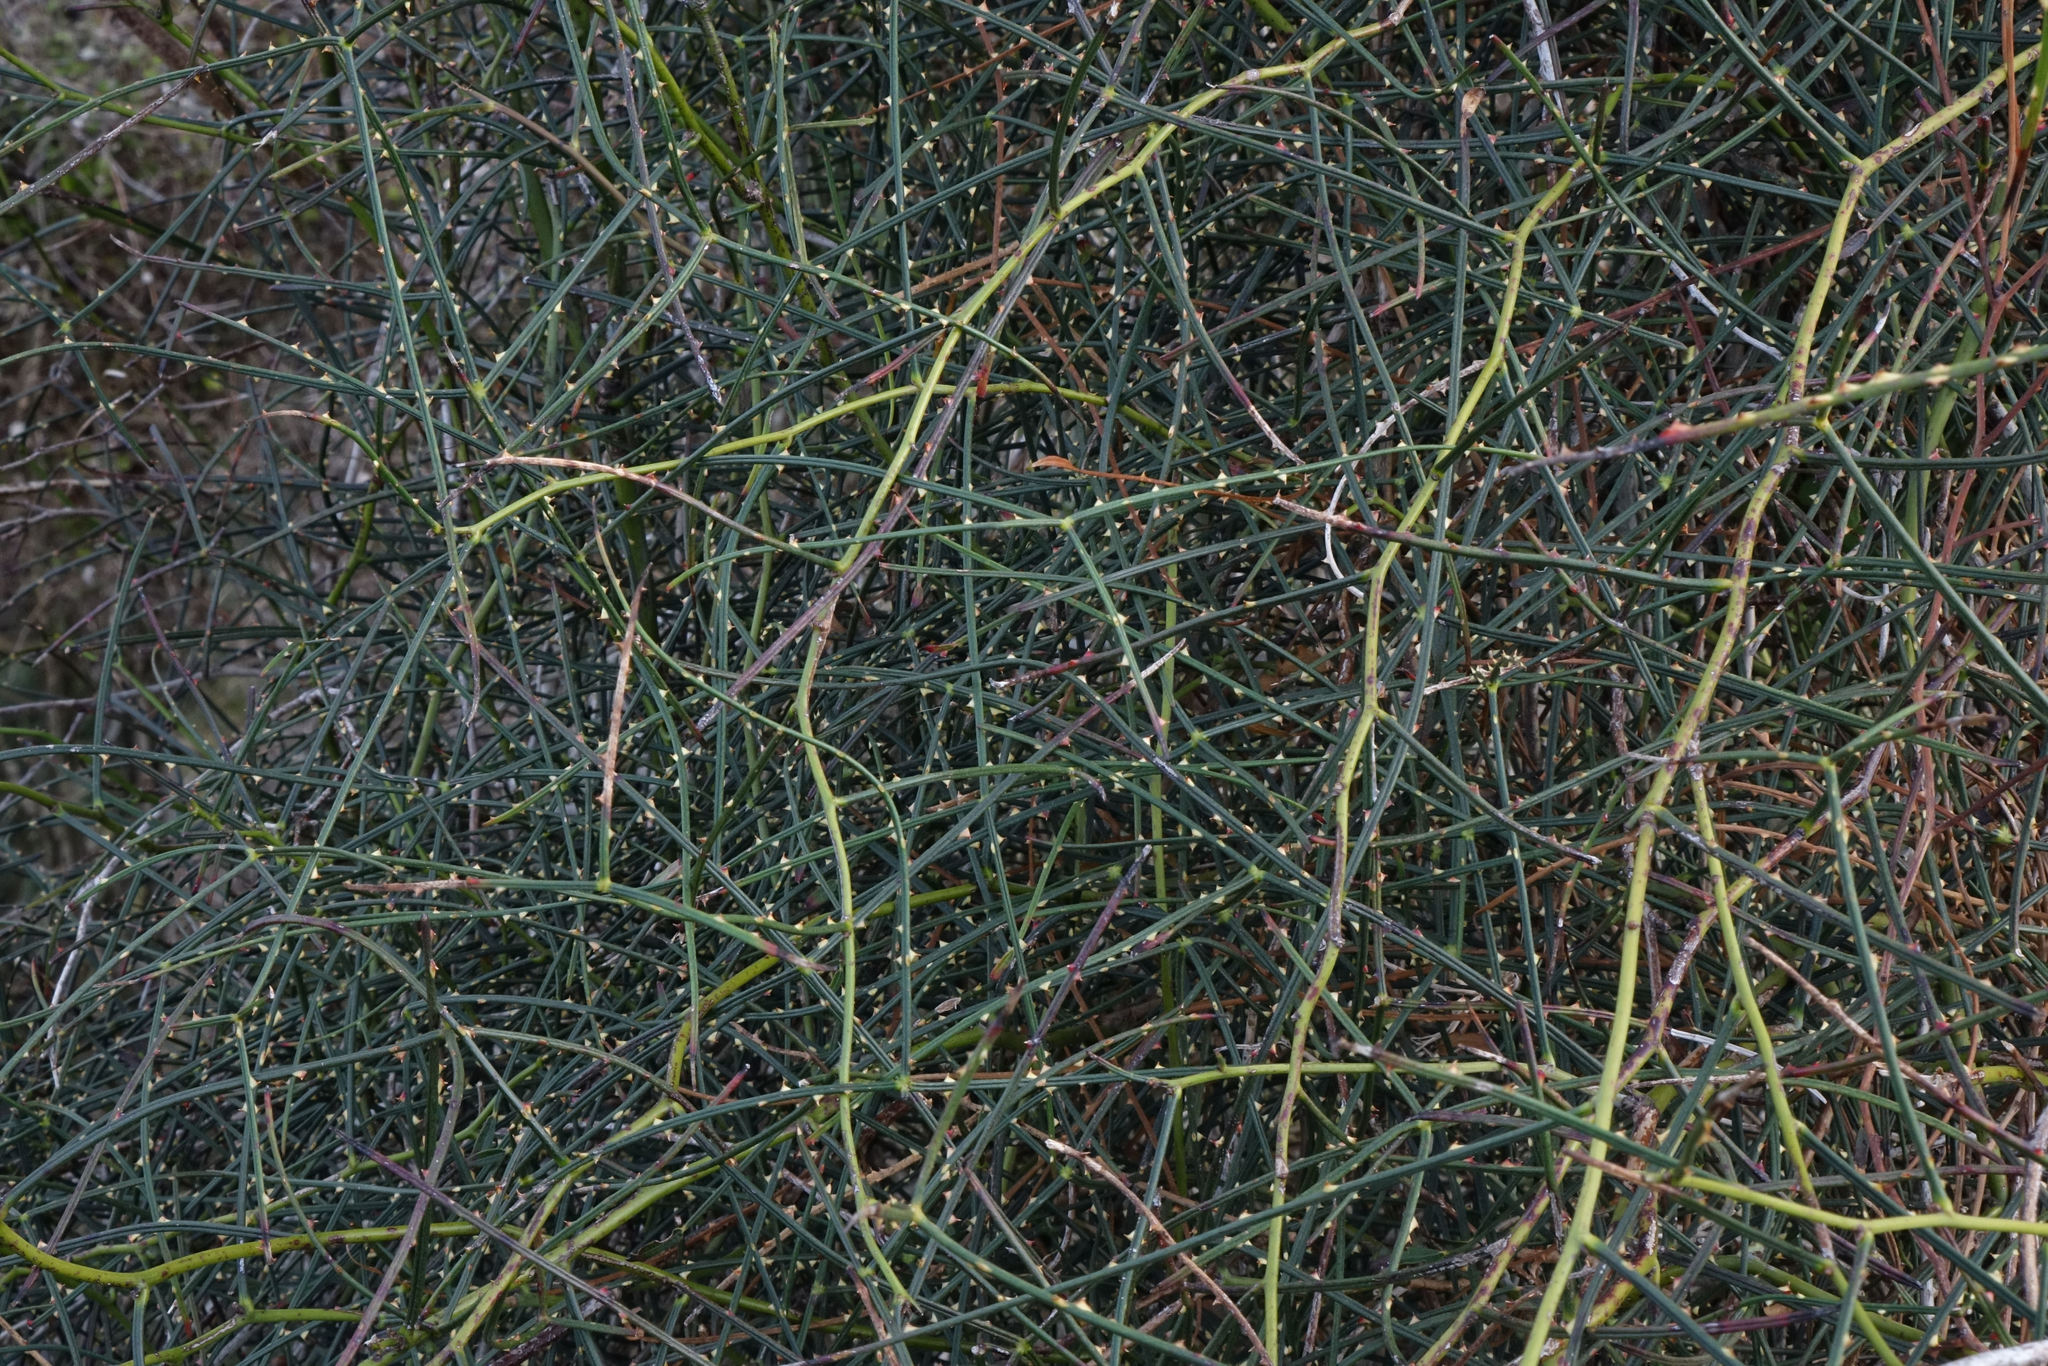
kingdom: Plantae
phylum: Tracheophyta
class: Magnoliopsida
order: Rosales
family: Rosaceae
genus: Rubus
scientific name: Rubus squarrosus
